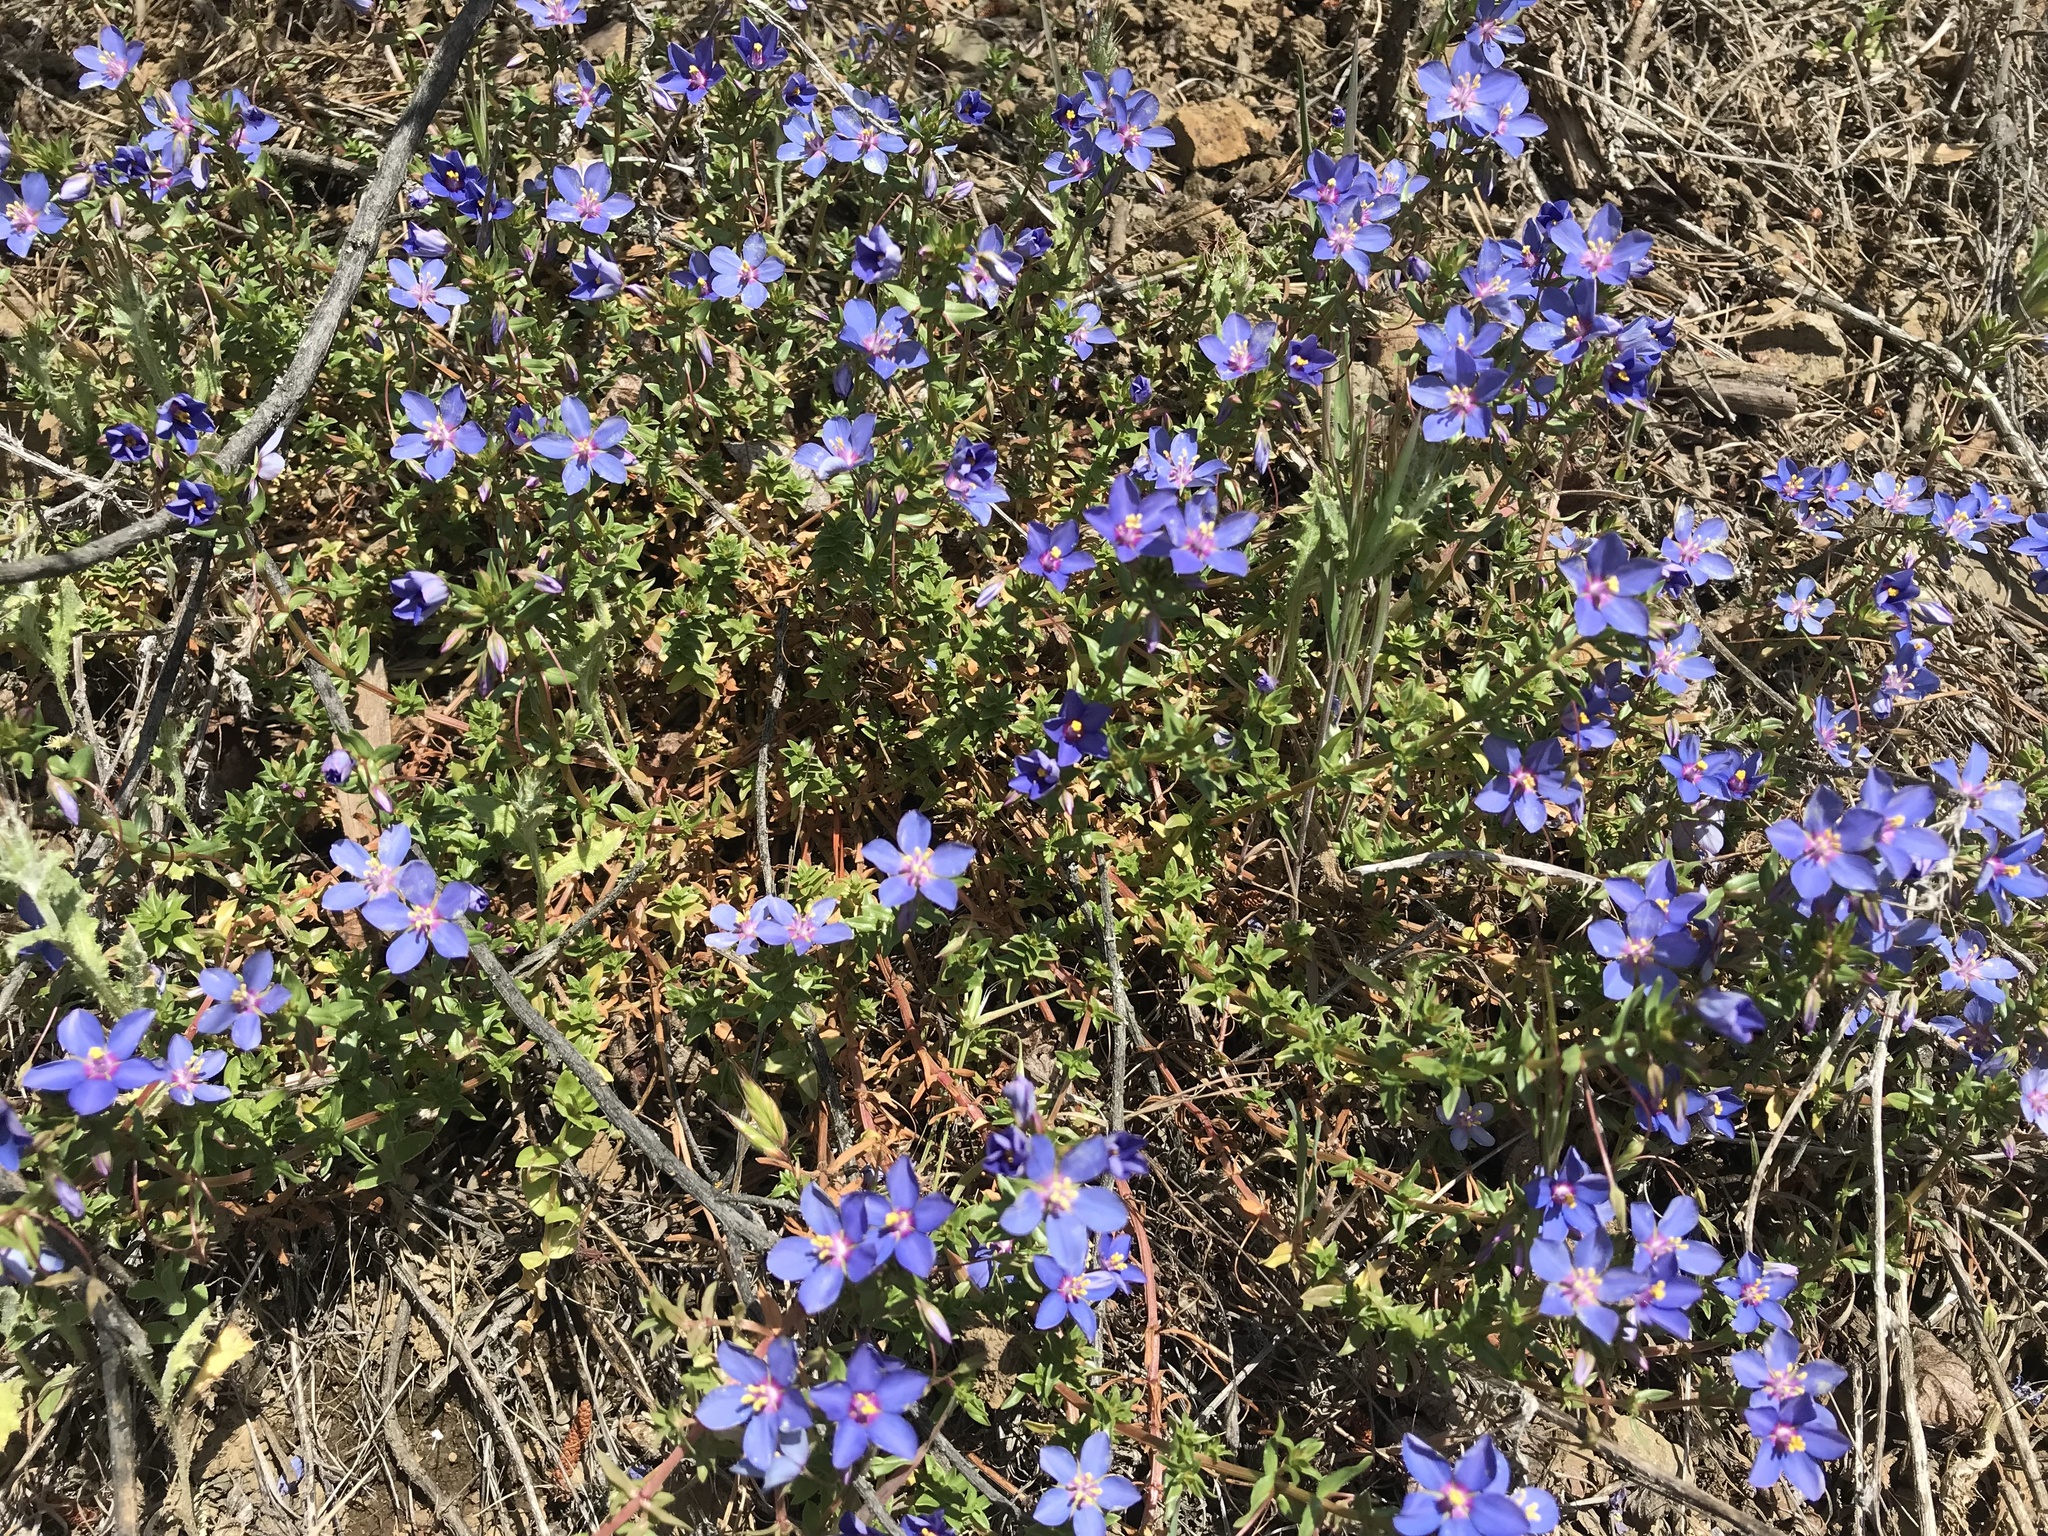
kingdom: Plantae
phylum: Tracheophyta
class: Magnoliopsida
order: Ericales
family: Primulaceae
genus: Lysimachia
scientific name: Lysimachia monelli
